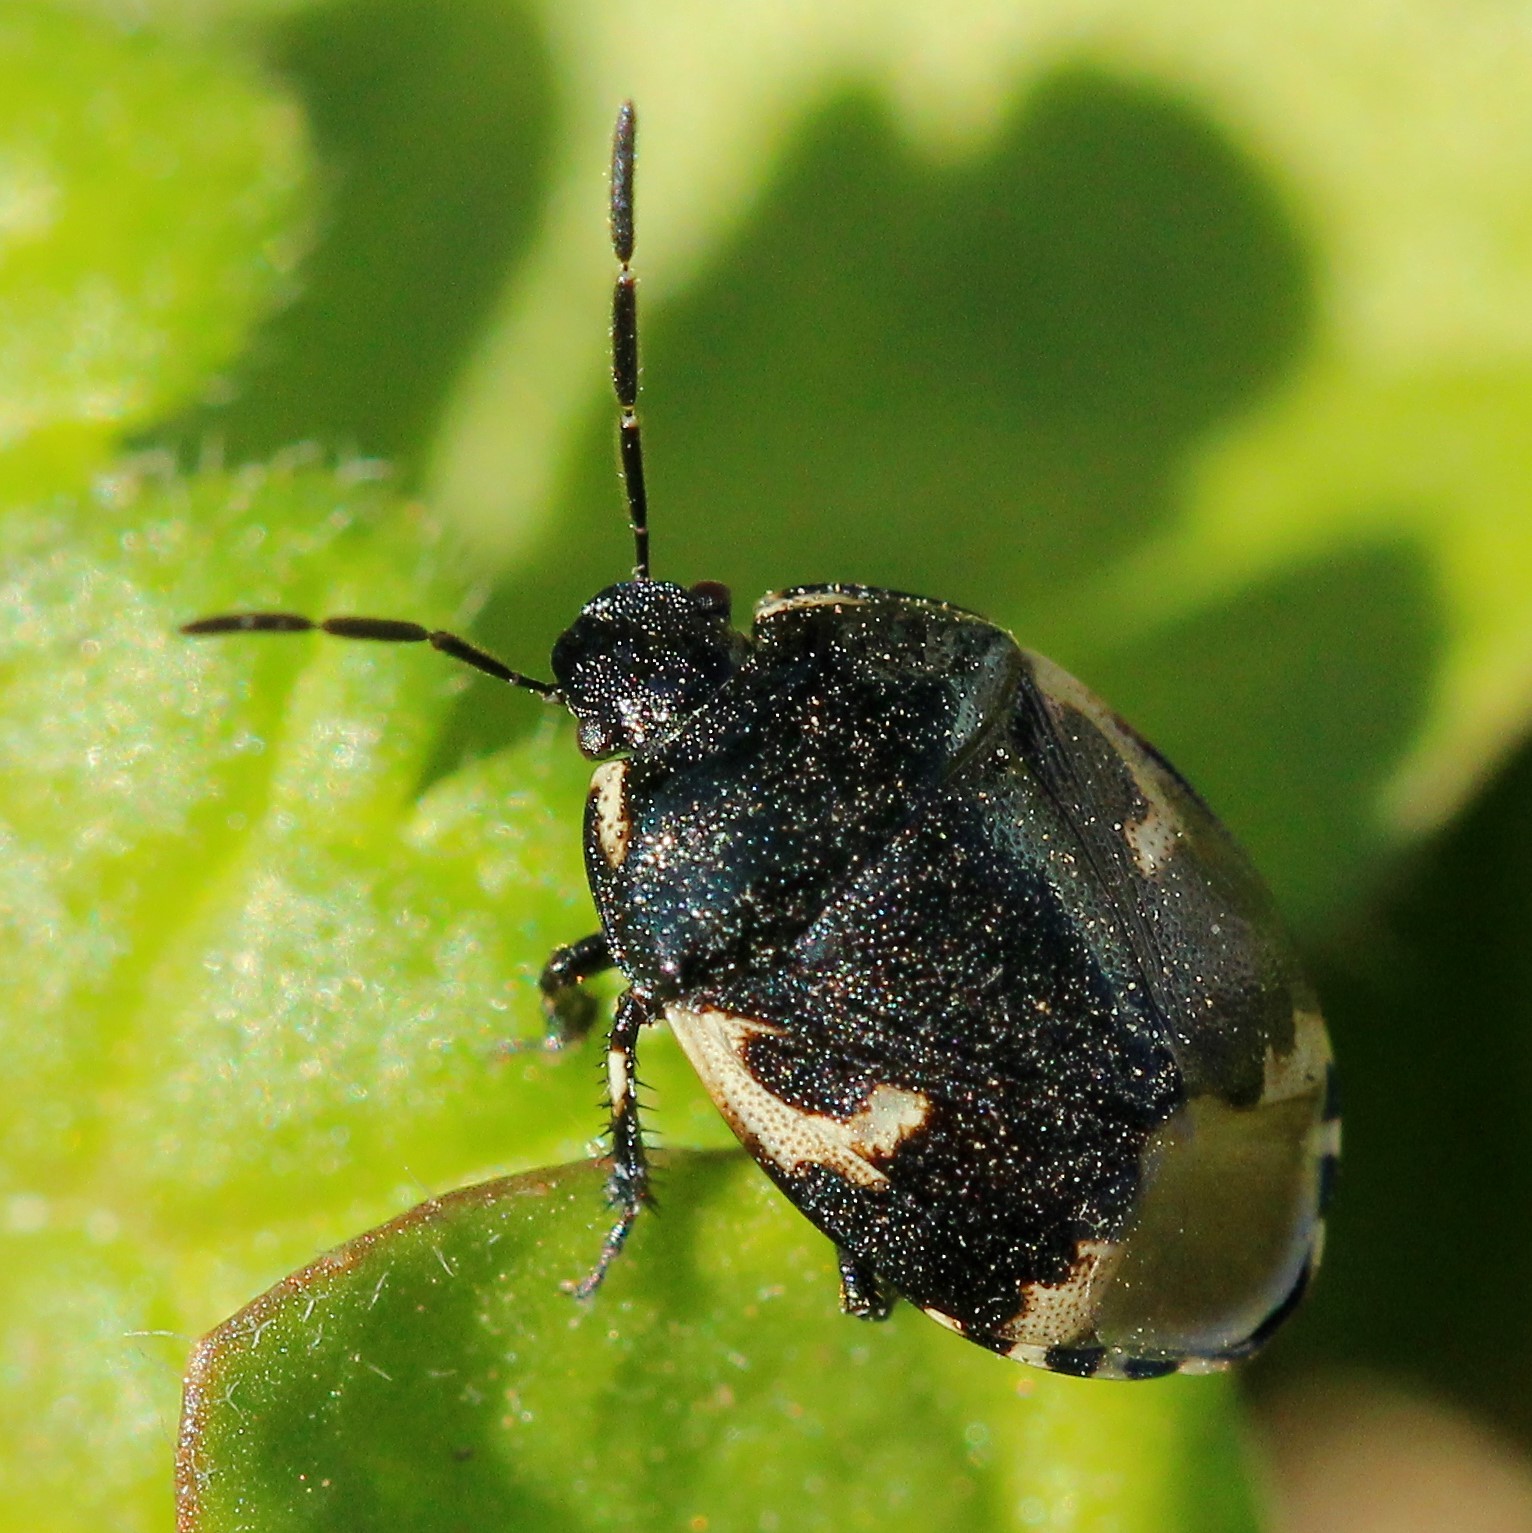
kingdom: Animalia
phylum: Arthropoda
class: Insecta
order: Hemiptera
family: Cydnidae
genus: Tritomegas
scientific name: Tritomegas bicolor
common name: Pied shieldbug
